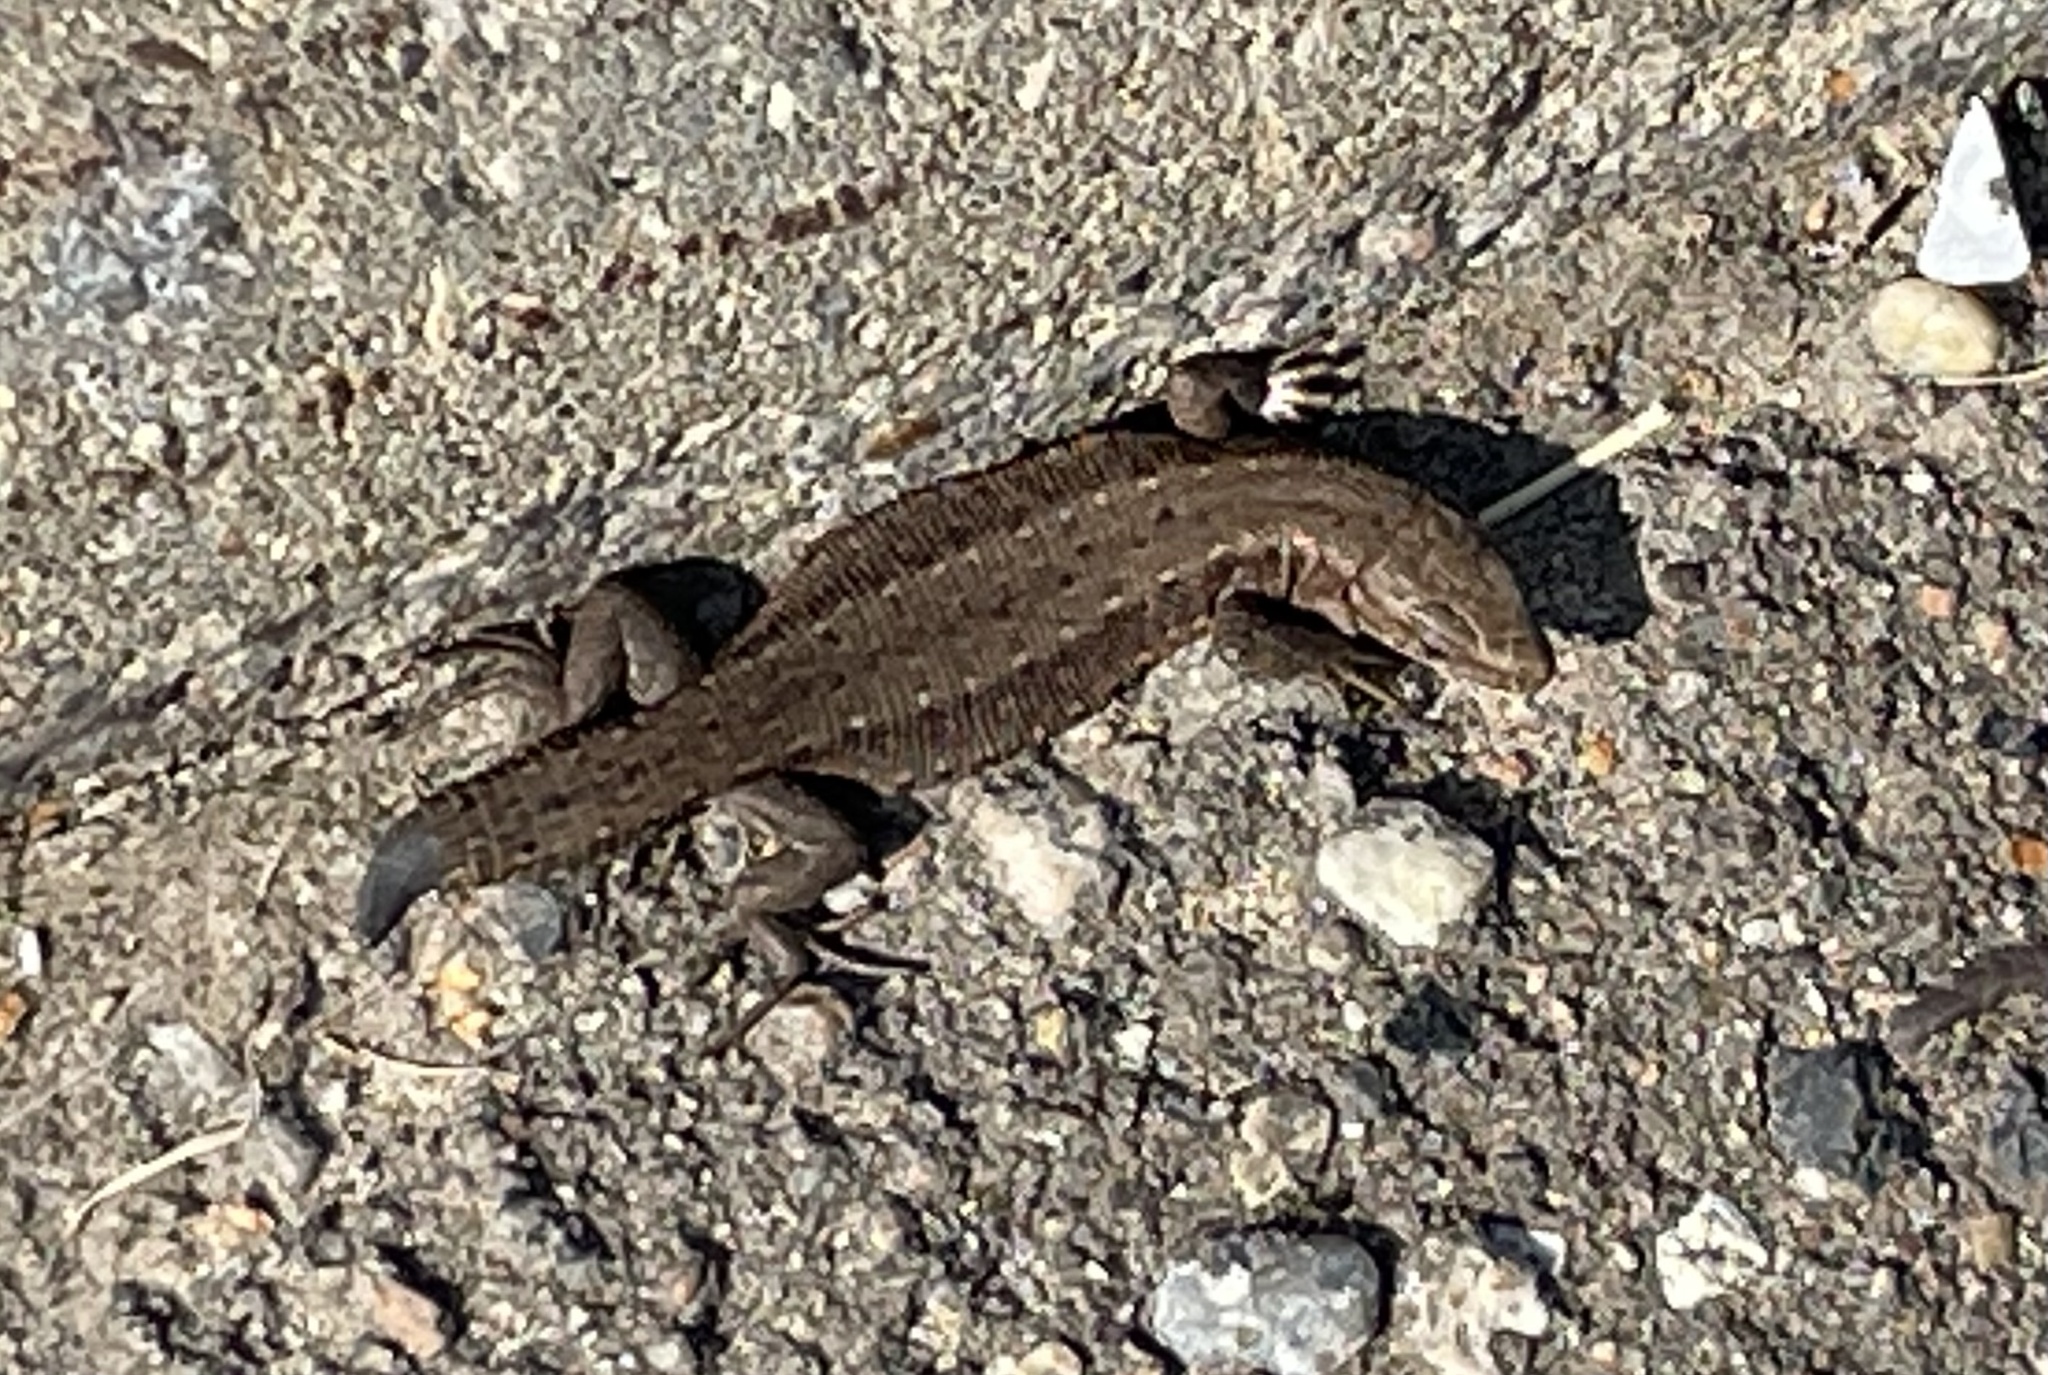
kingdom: Animalia
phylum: Chordata
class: Squamata
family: Lacertidae
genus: Zootoca
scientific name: Zootoca vivipara
